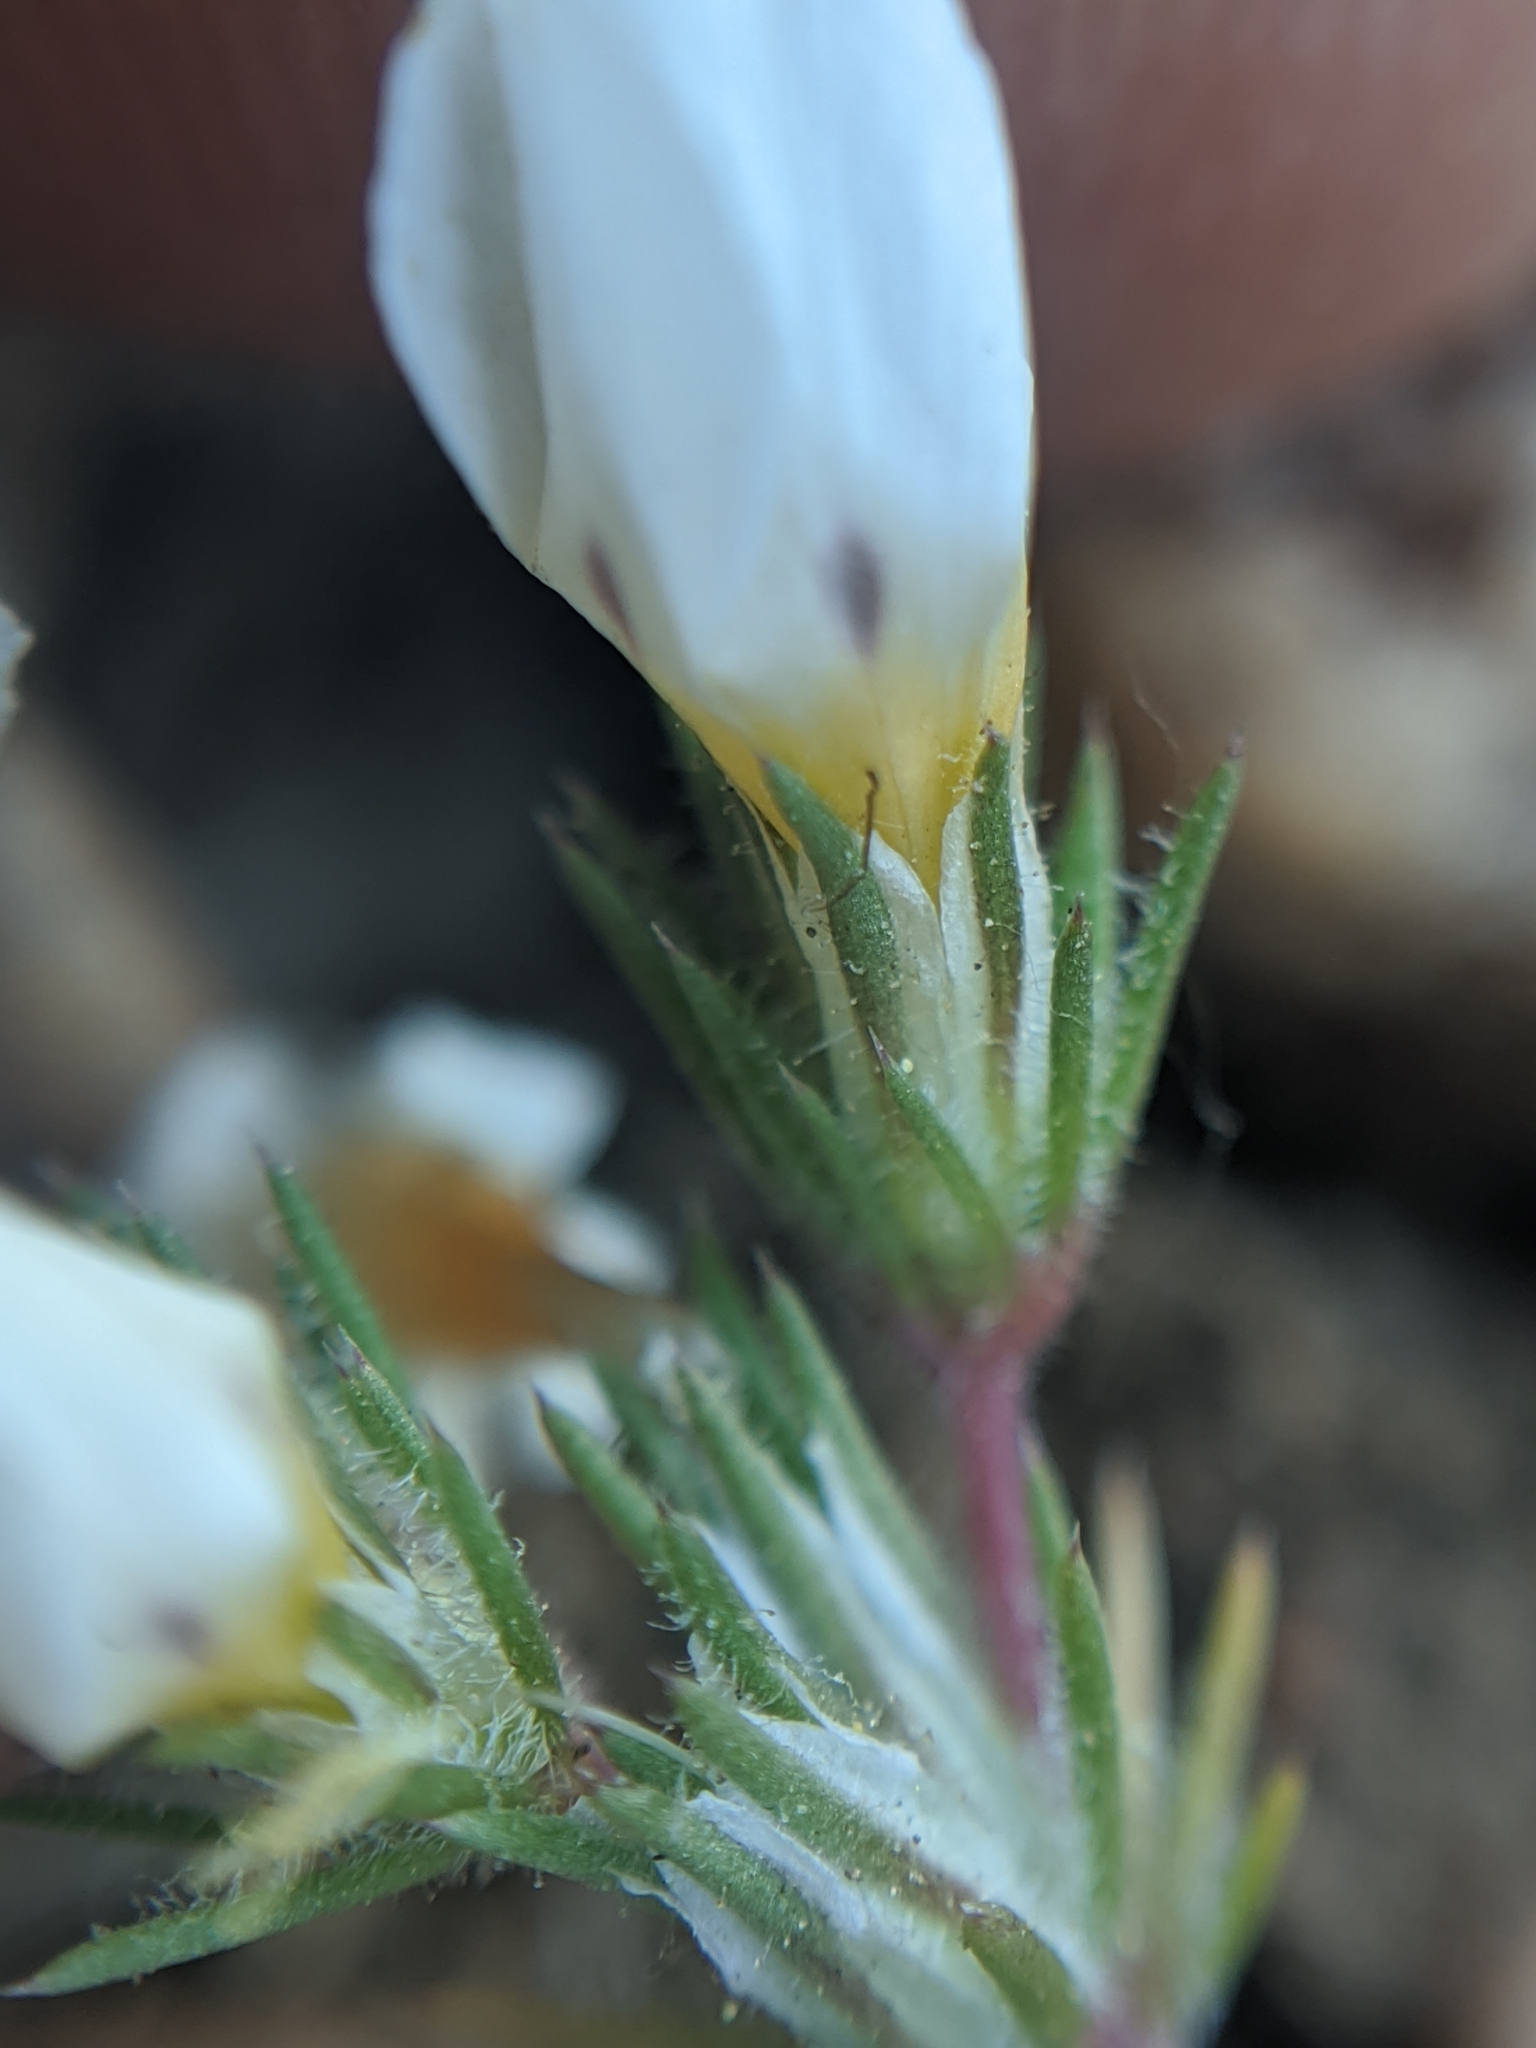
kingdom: Plantae
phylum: Tracheophyta
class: Magnoliopsida
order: Ericales
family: Polemoniaceae
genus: Linanthus
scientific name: Linanthus killipii
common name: Baldwin lake linanthus
